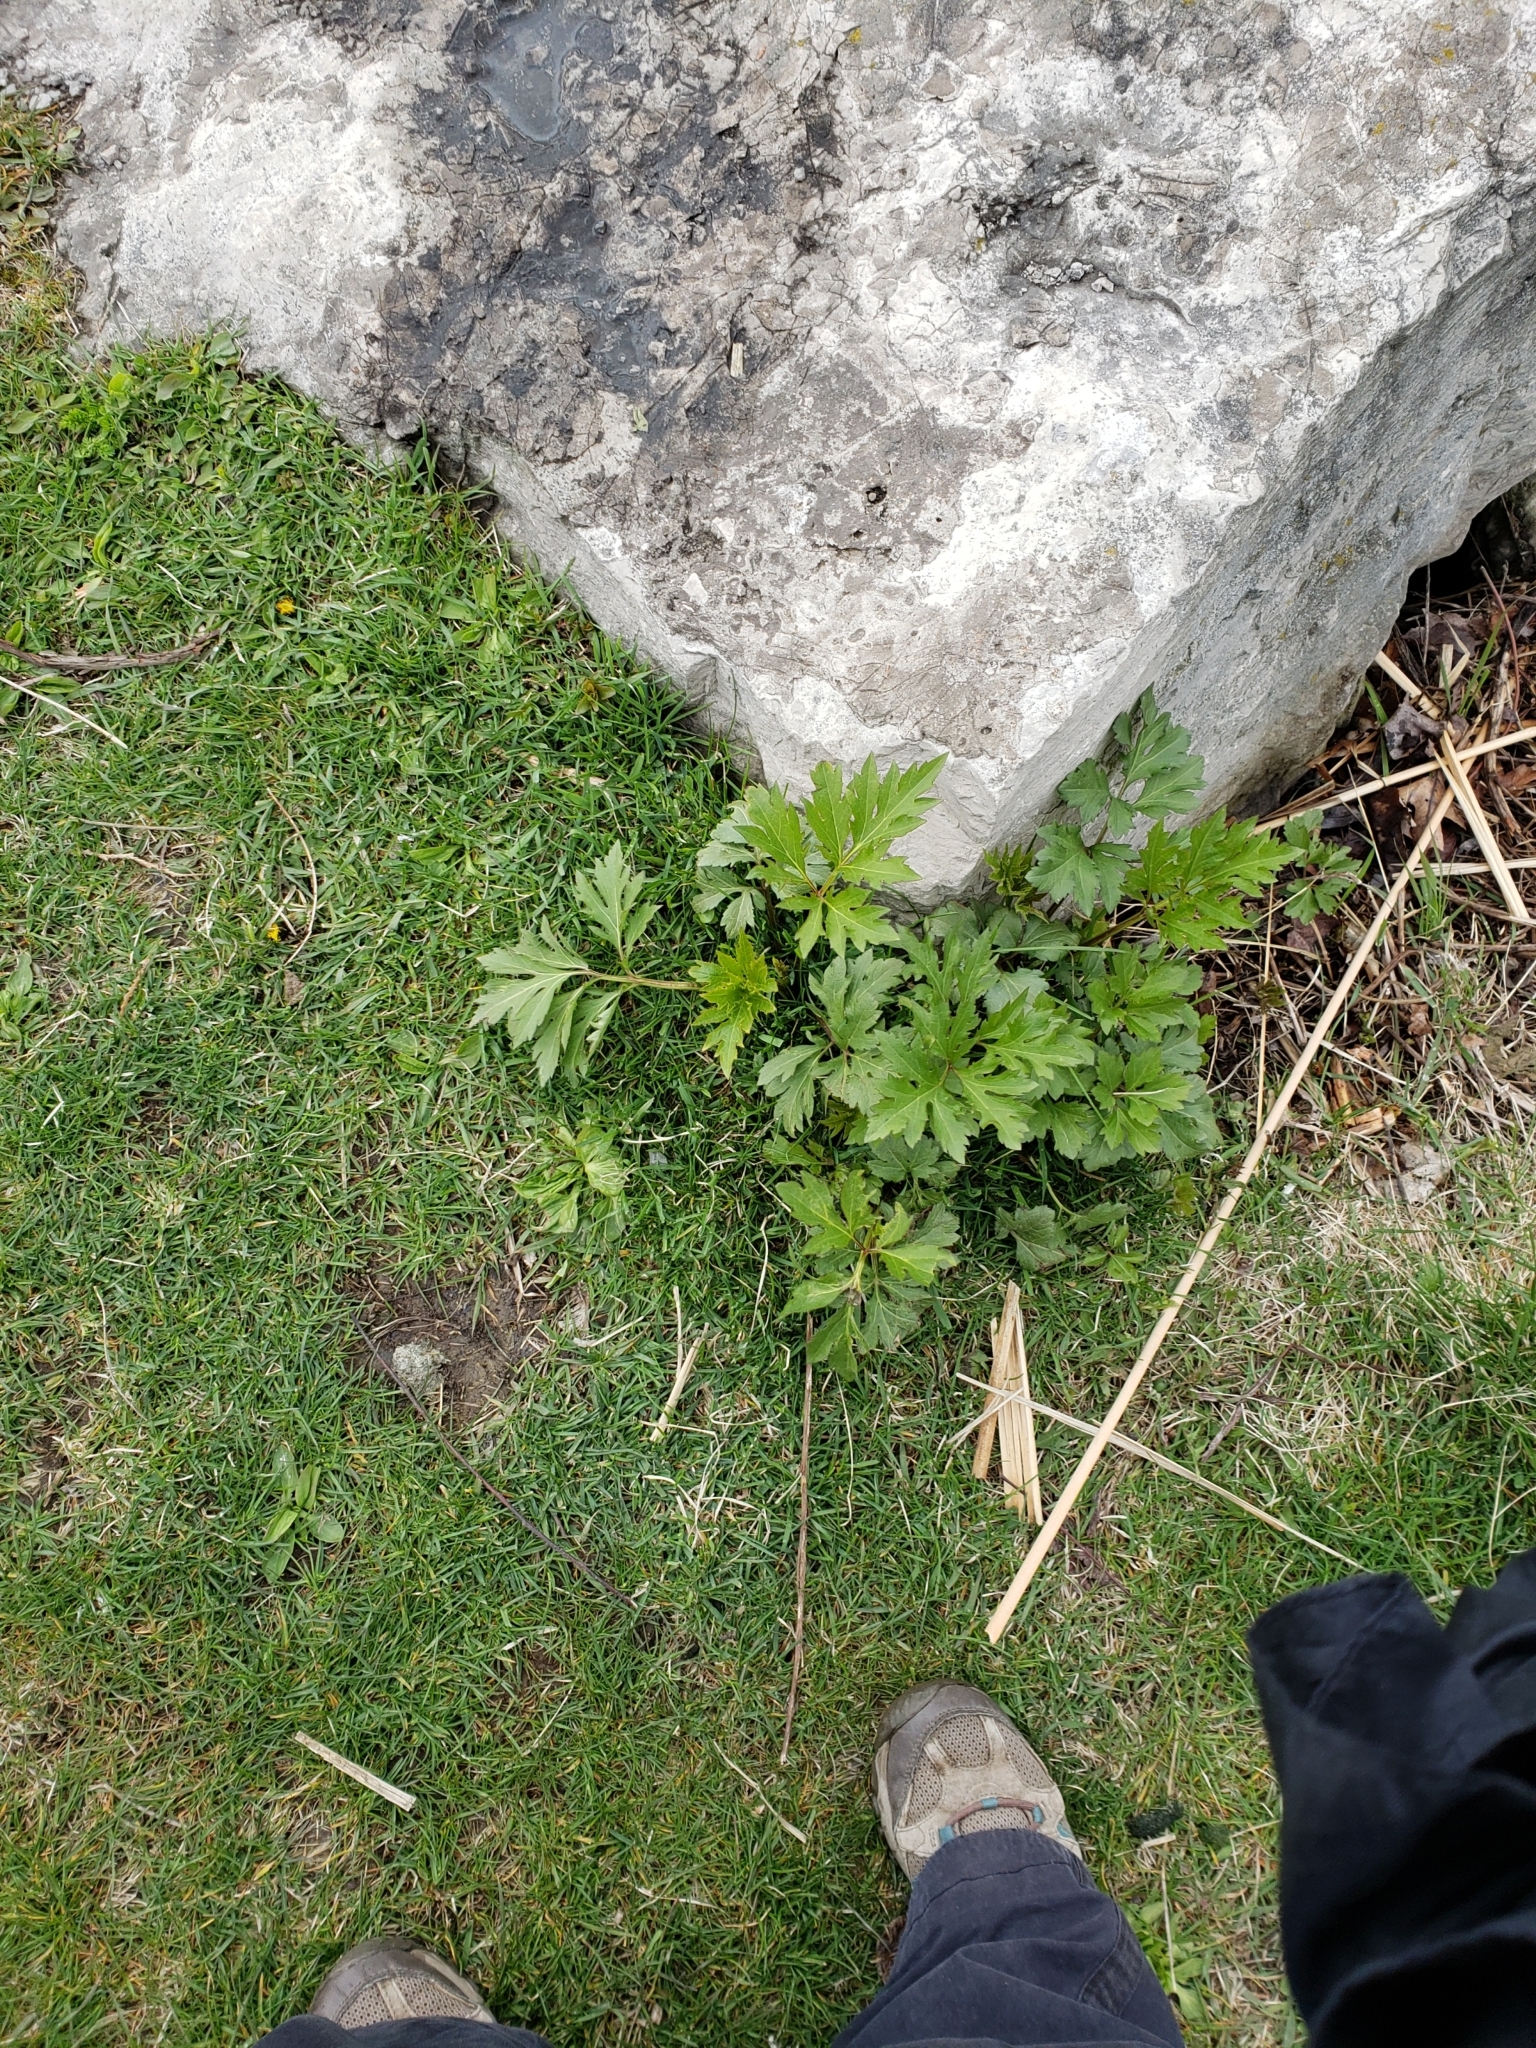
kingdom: Plantae
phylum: Tracheophyta
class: Magnoliopsida
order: Asterales
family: Asteraceae
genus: Artemisia
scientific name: Artemisia vulgaris
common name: Mugwort
